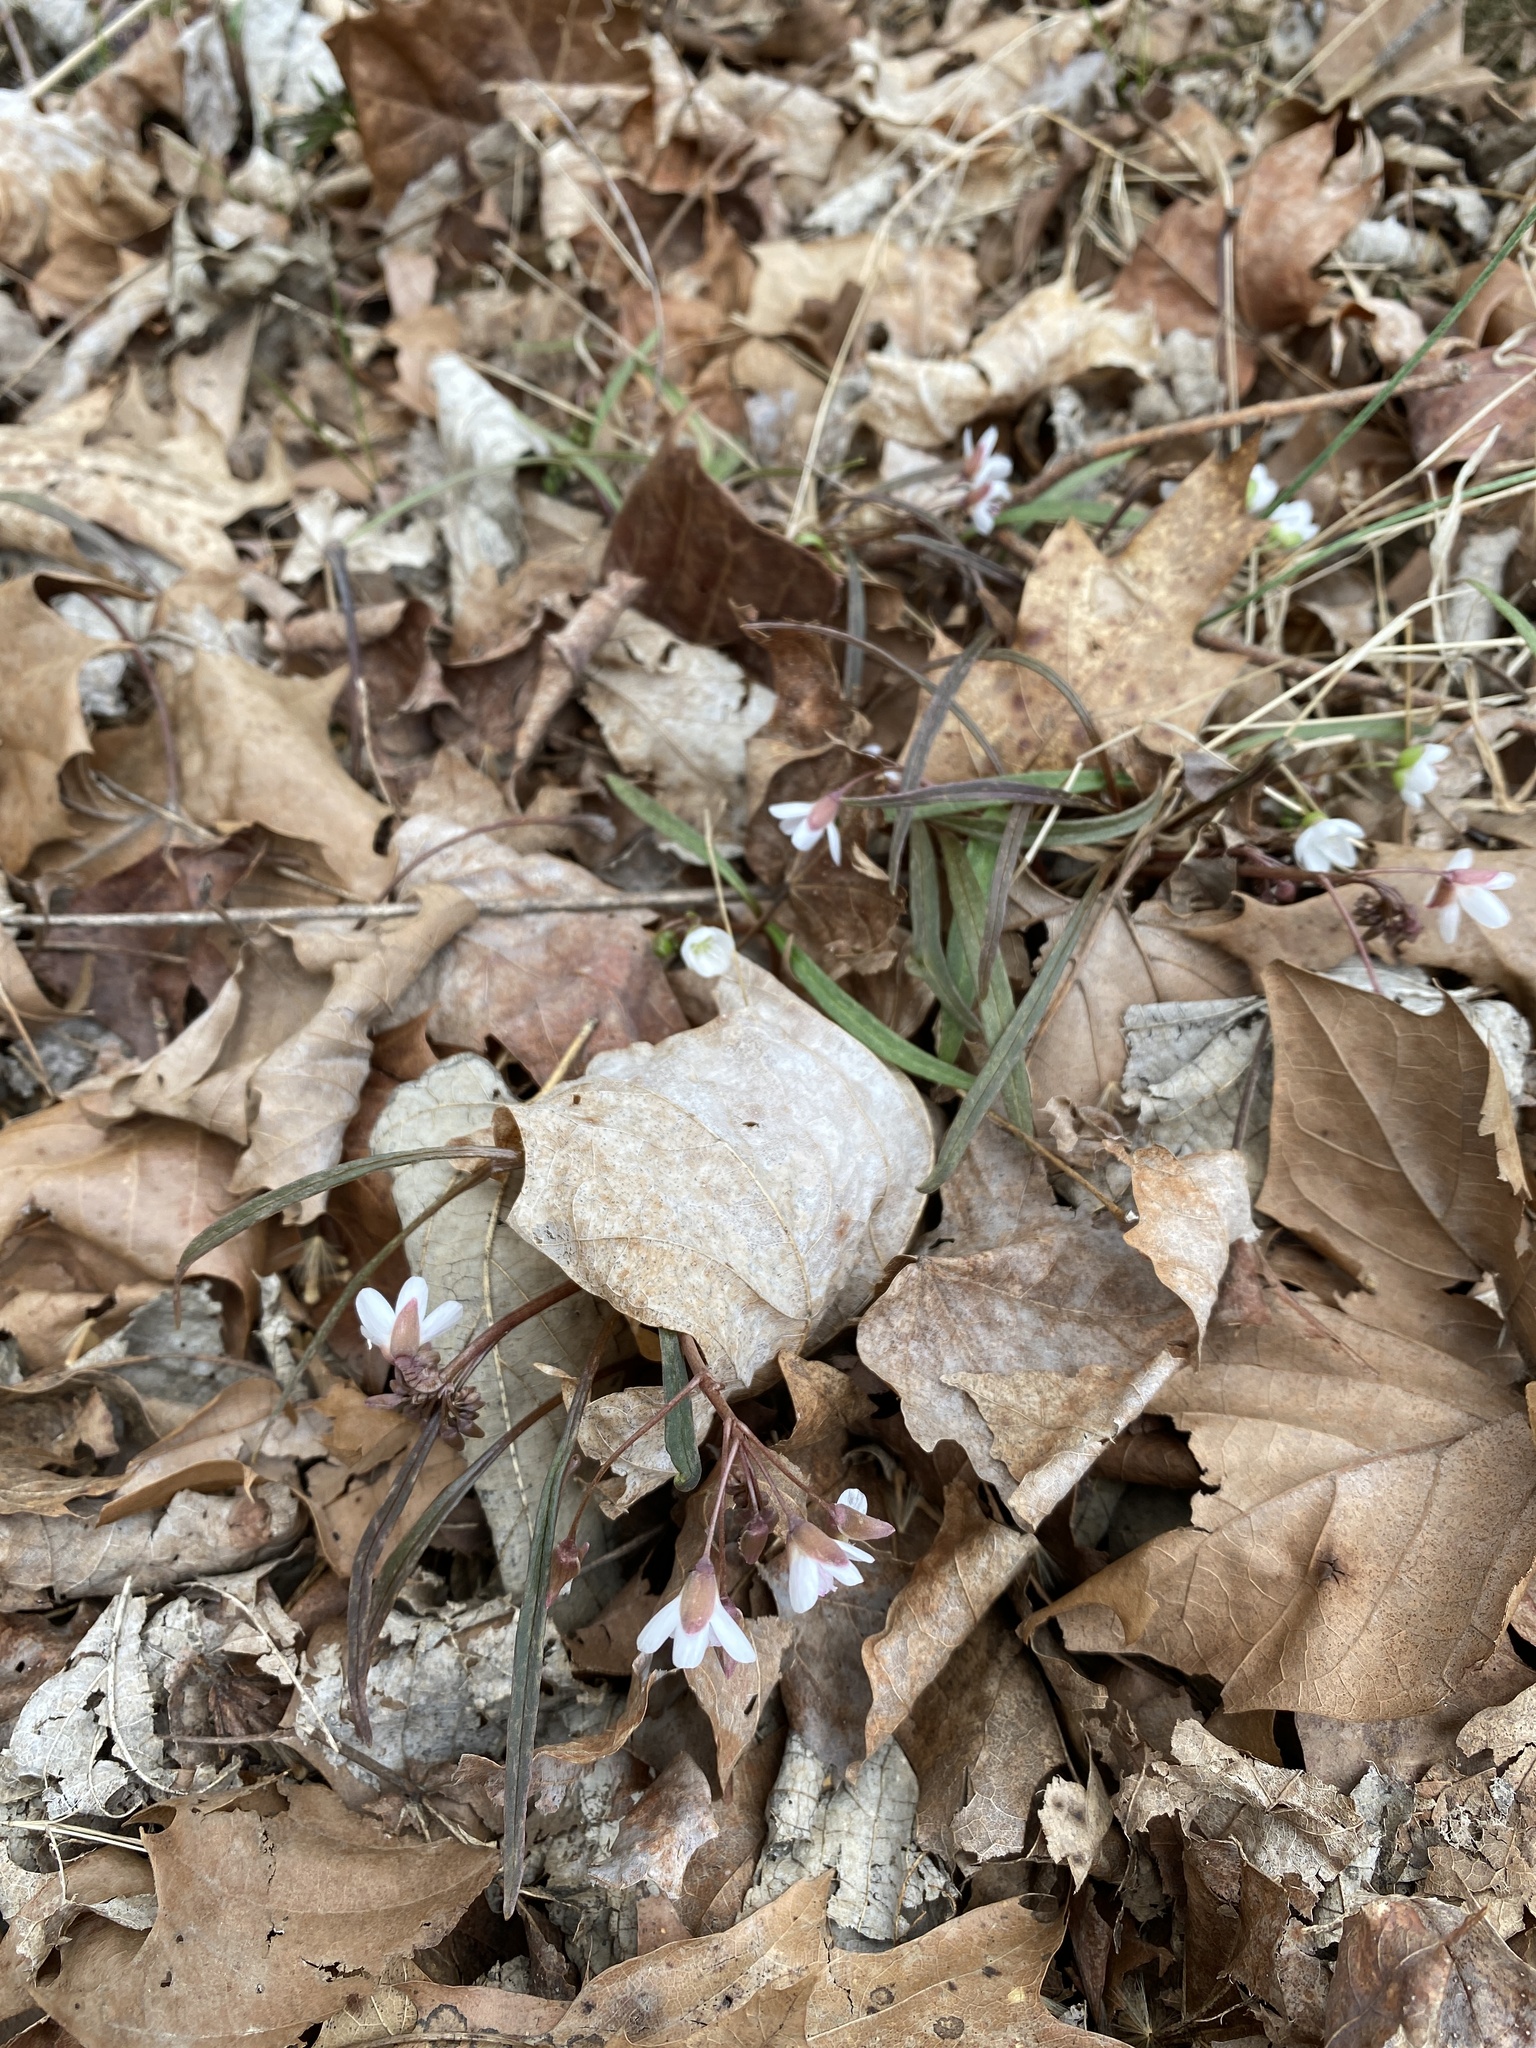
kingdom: Plantae
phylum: Tracheophyta
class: Magnoliopsida
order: Caryophyllales
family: Montiaceae
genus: Claytonia
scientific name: Claytonia virginica
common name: Virginia springbeauty
